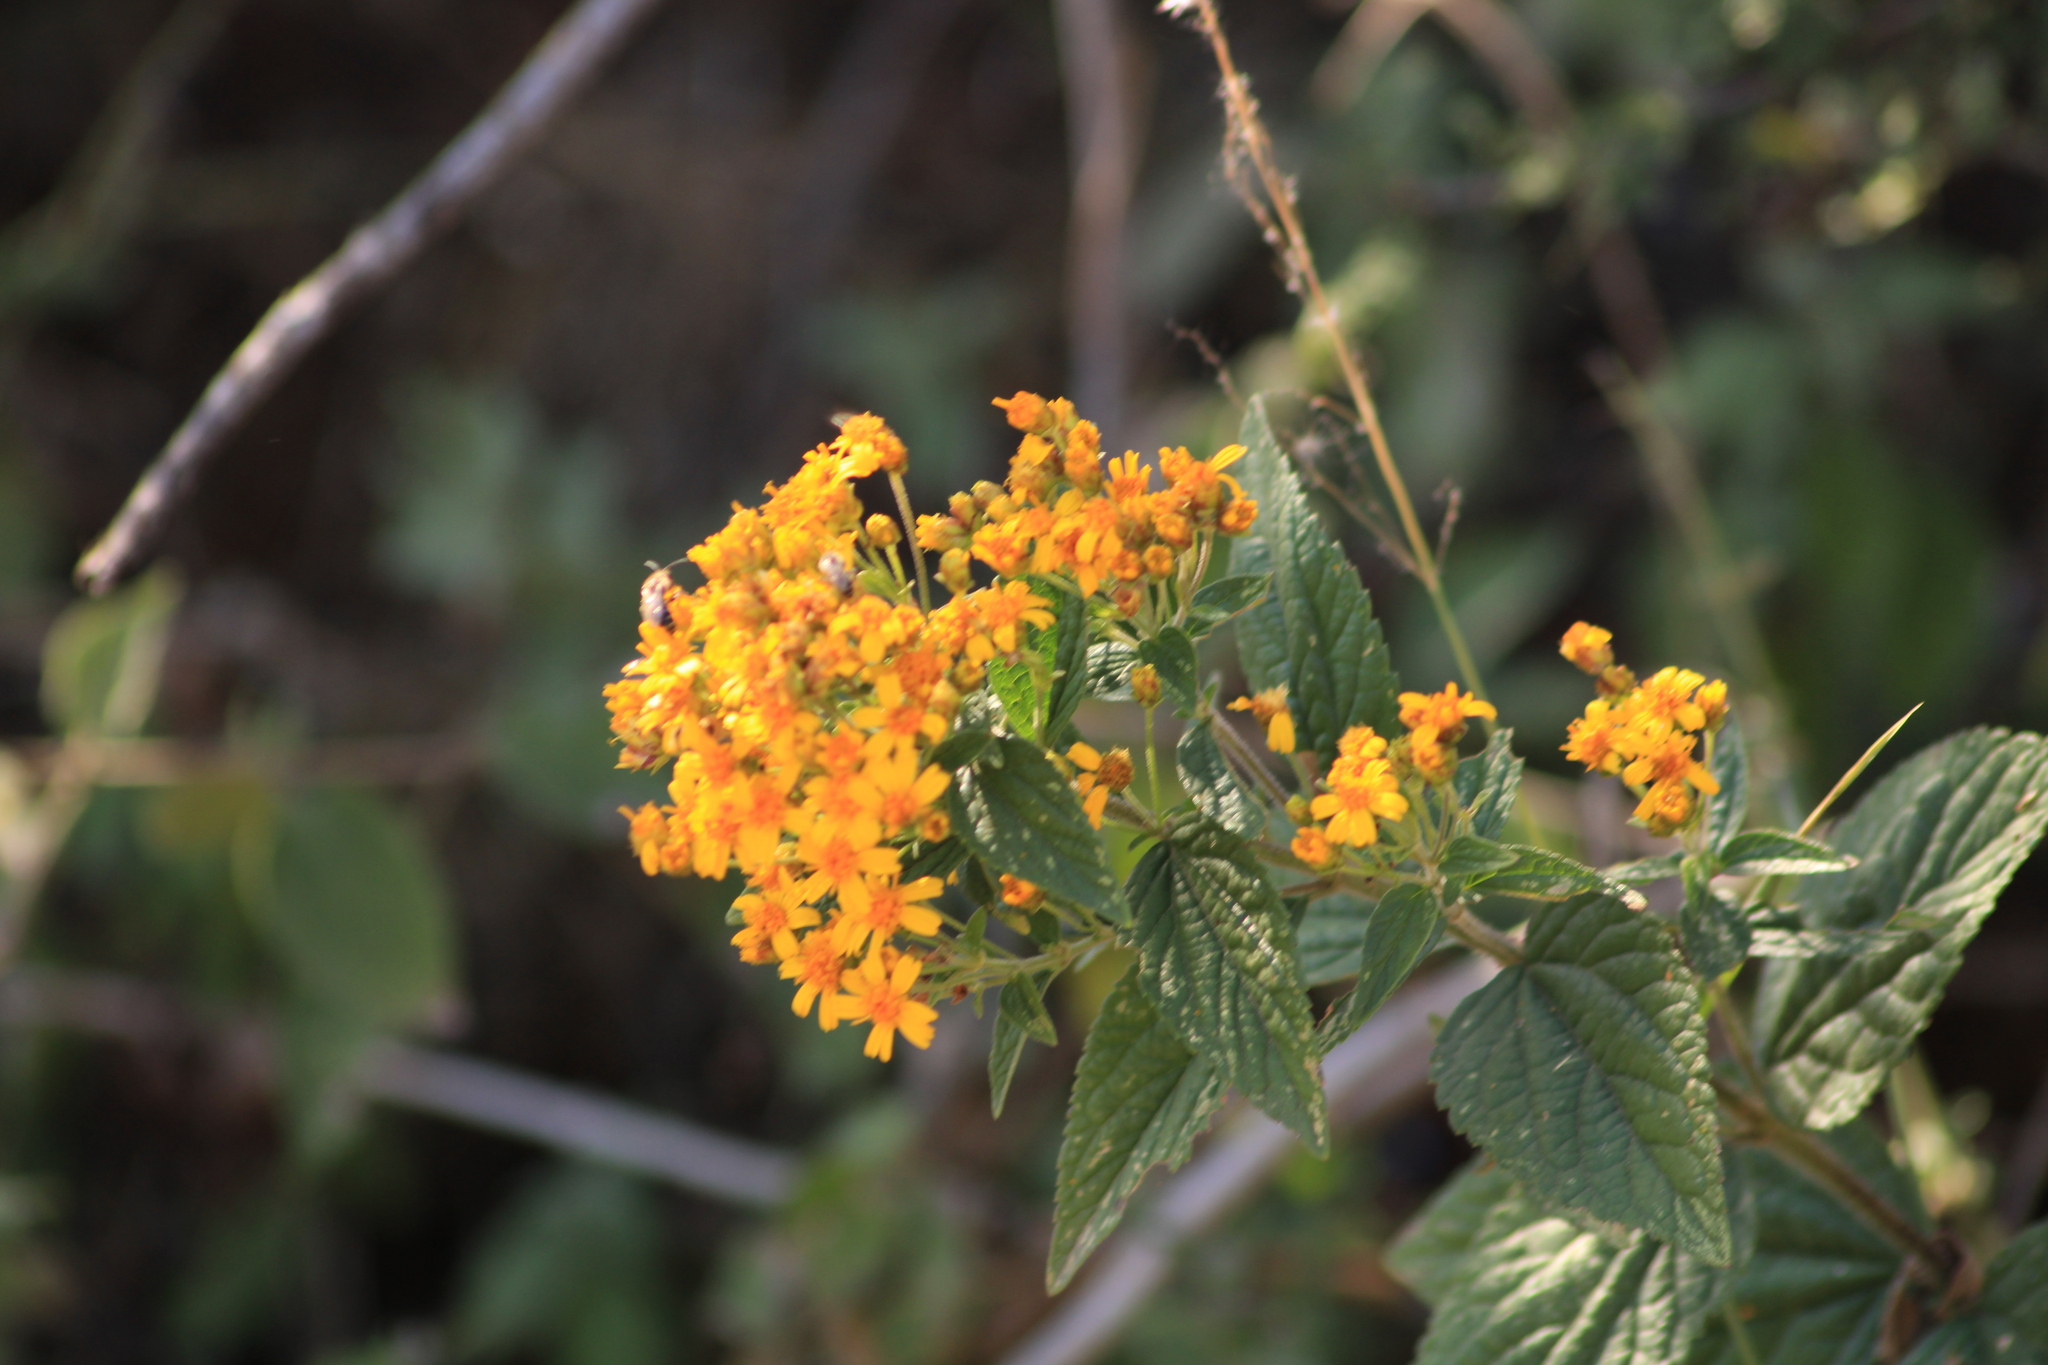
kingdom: Plantae
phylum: Tracheophyta
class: Magnoliopsida
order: Asterales
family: Asteraceae
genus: Calea
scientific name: Calea urticifolia
